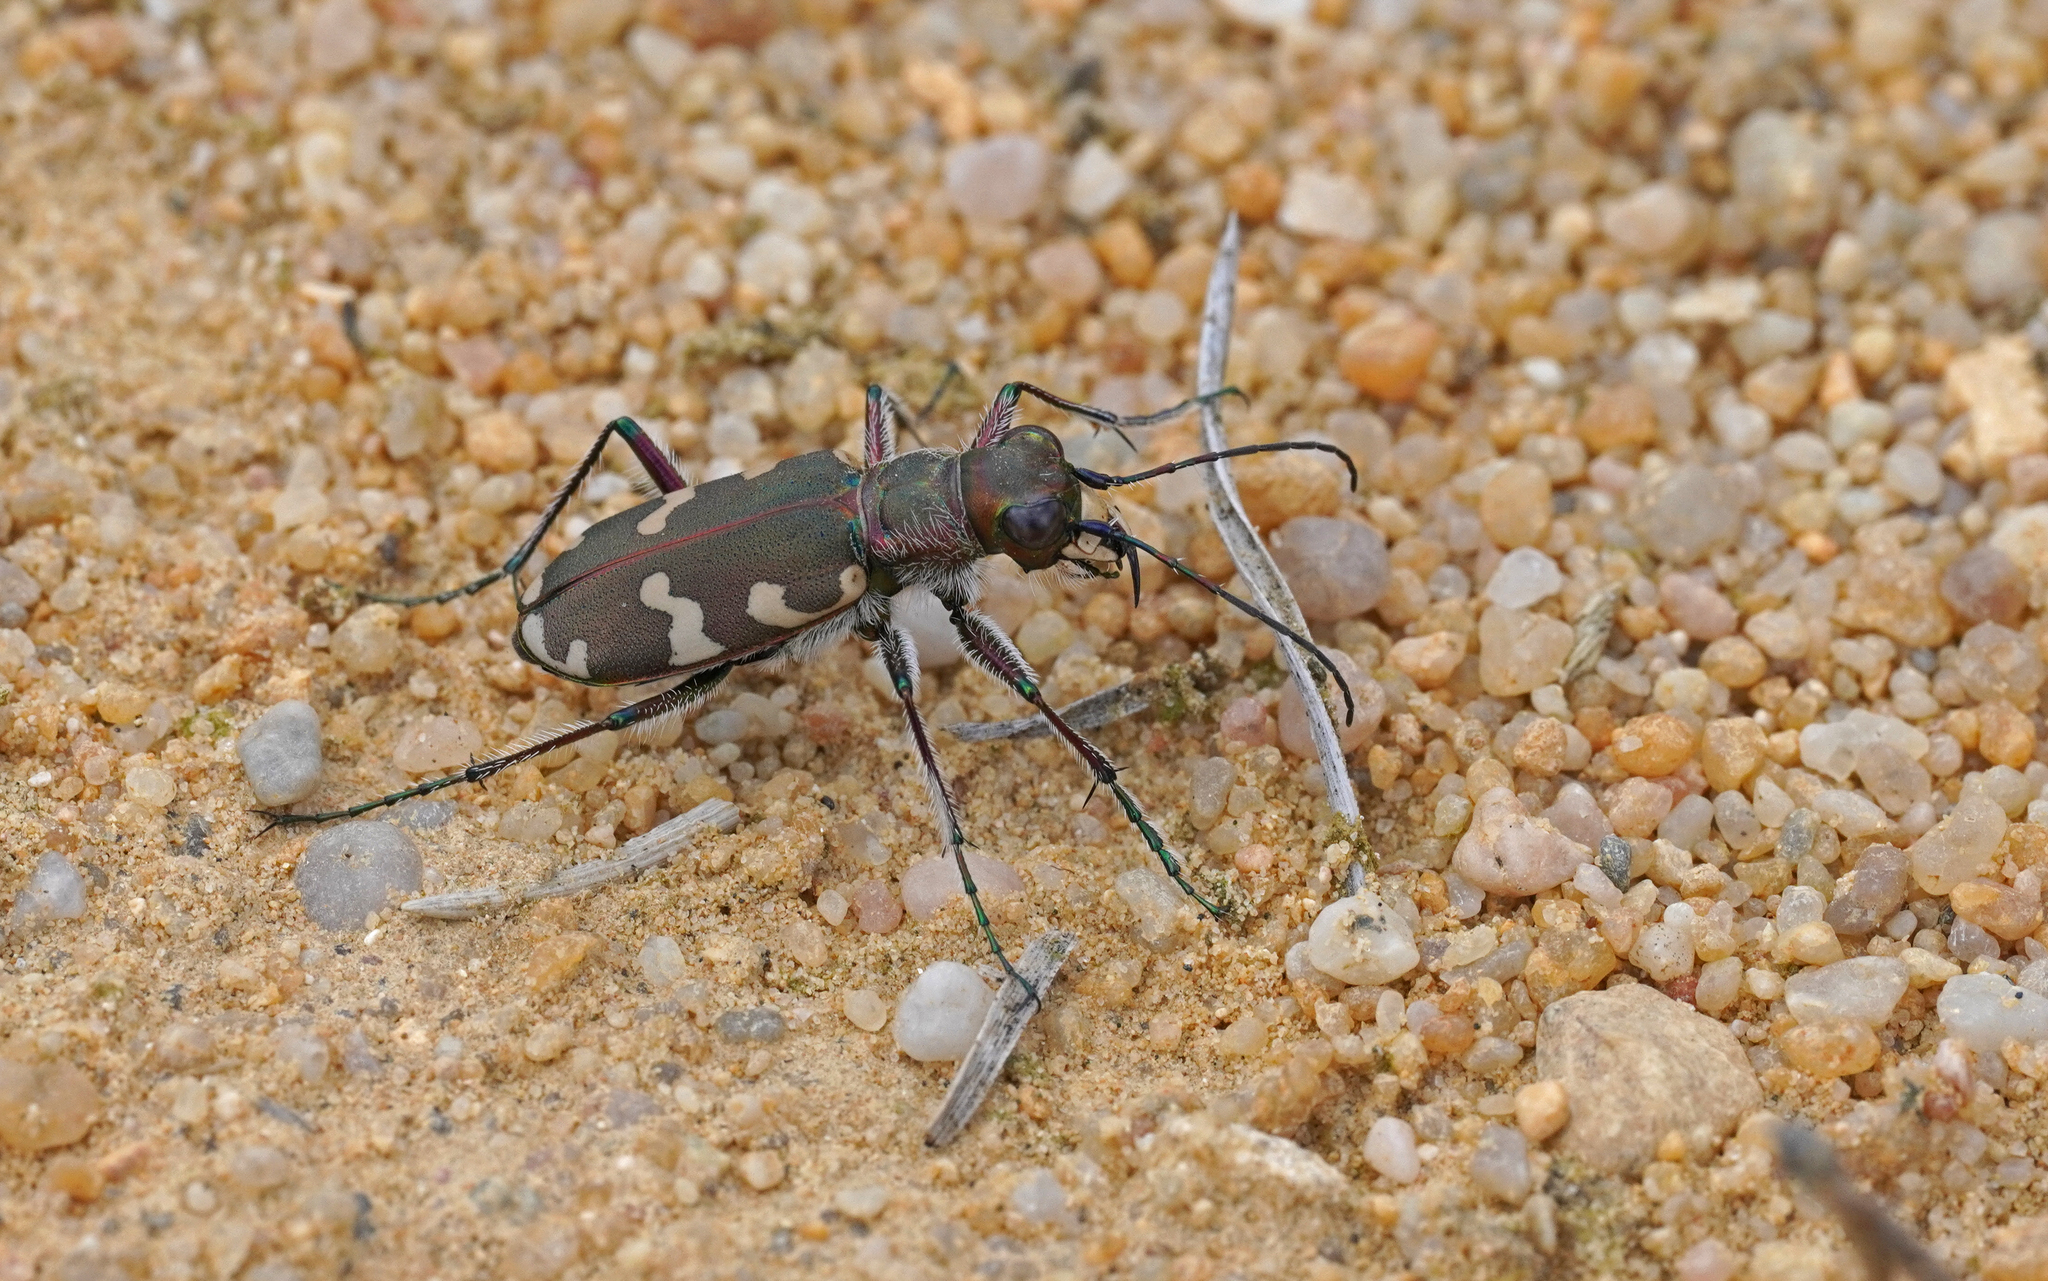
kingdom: Animalia
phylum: Arthropoda
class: Insecta
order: Coleoptera
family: Carabidae
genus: Cicindela
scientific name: Cicindela hybrida
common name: Northern dune tiger beetle
